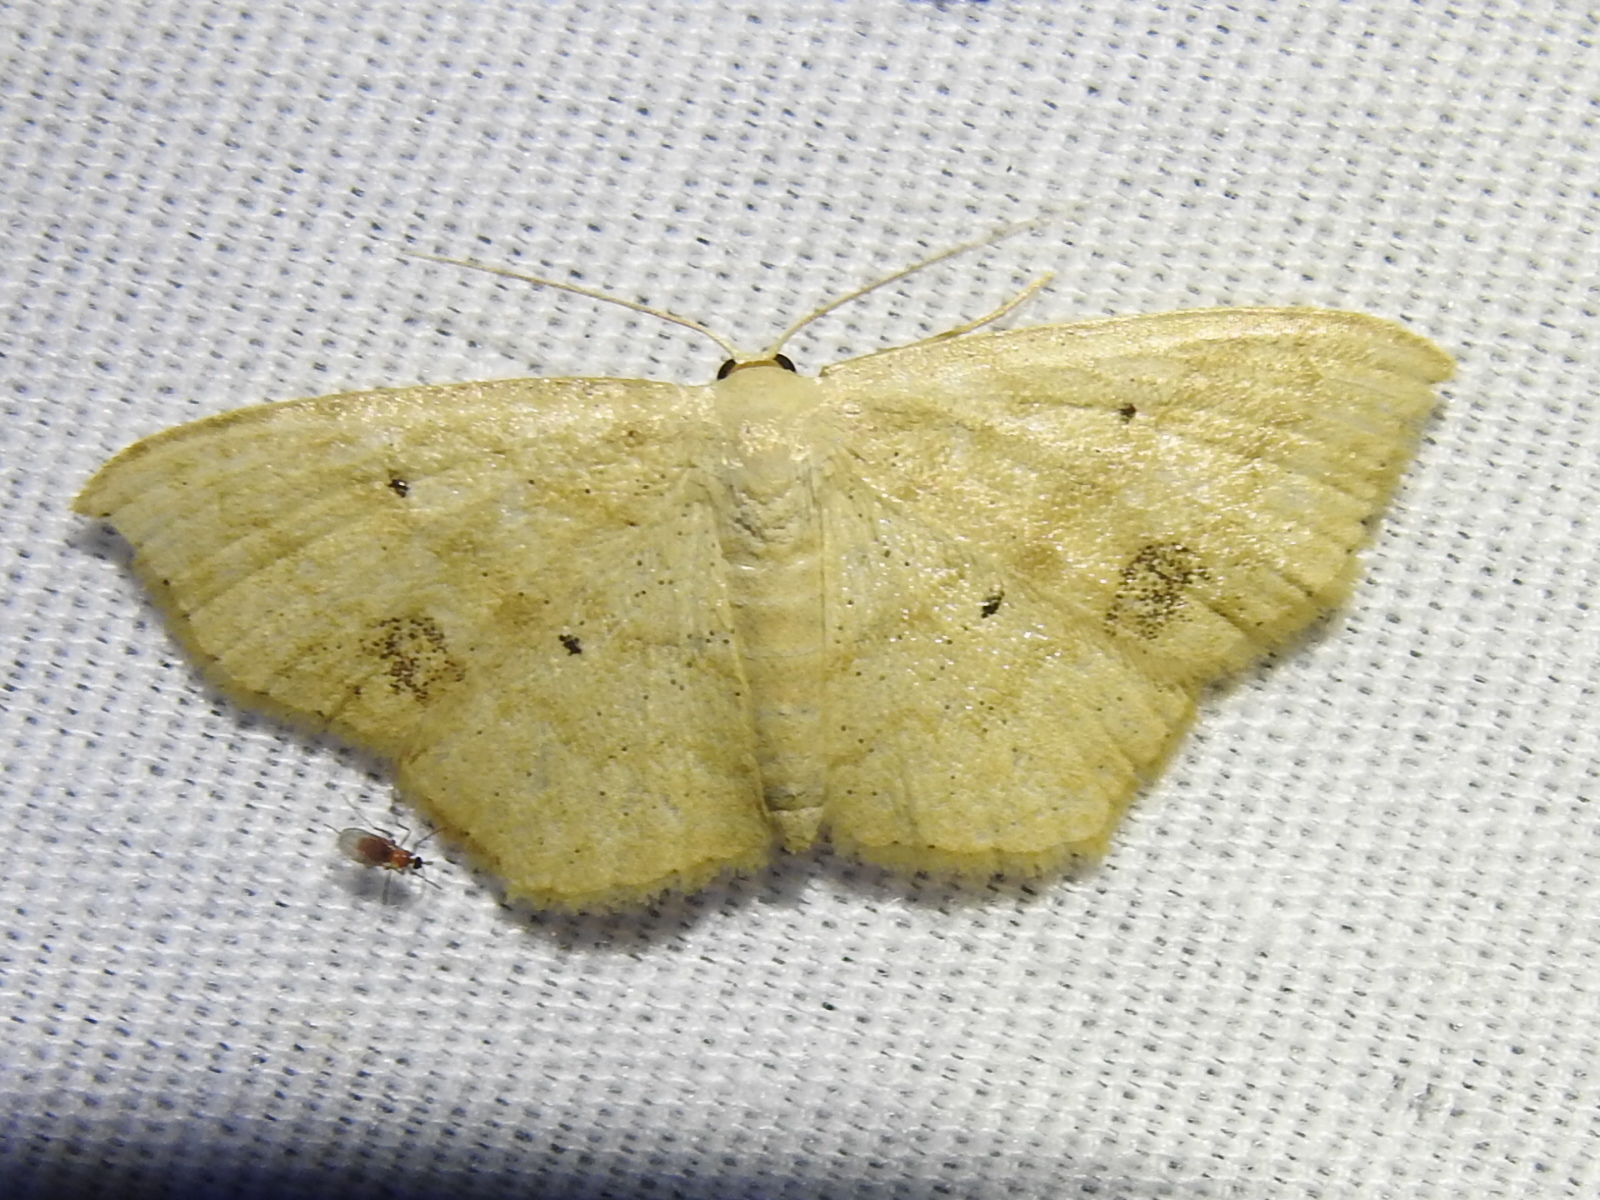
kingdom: Animalia
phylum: Arthropoda
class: Insecta
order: Lepidoptera
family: Geometridae
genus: Scopula
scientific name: Scopula limboundata
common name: Large lace border
